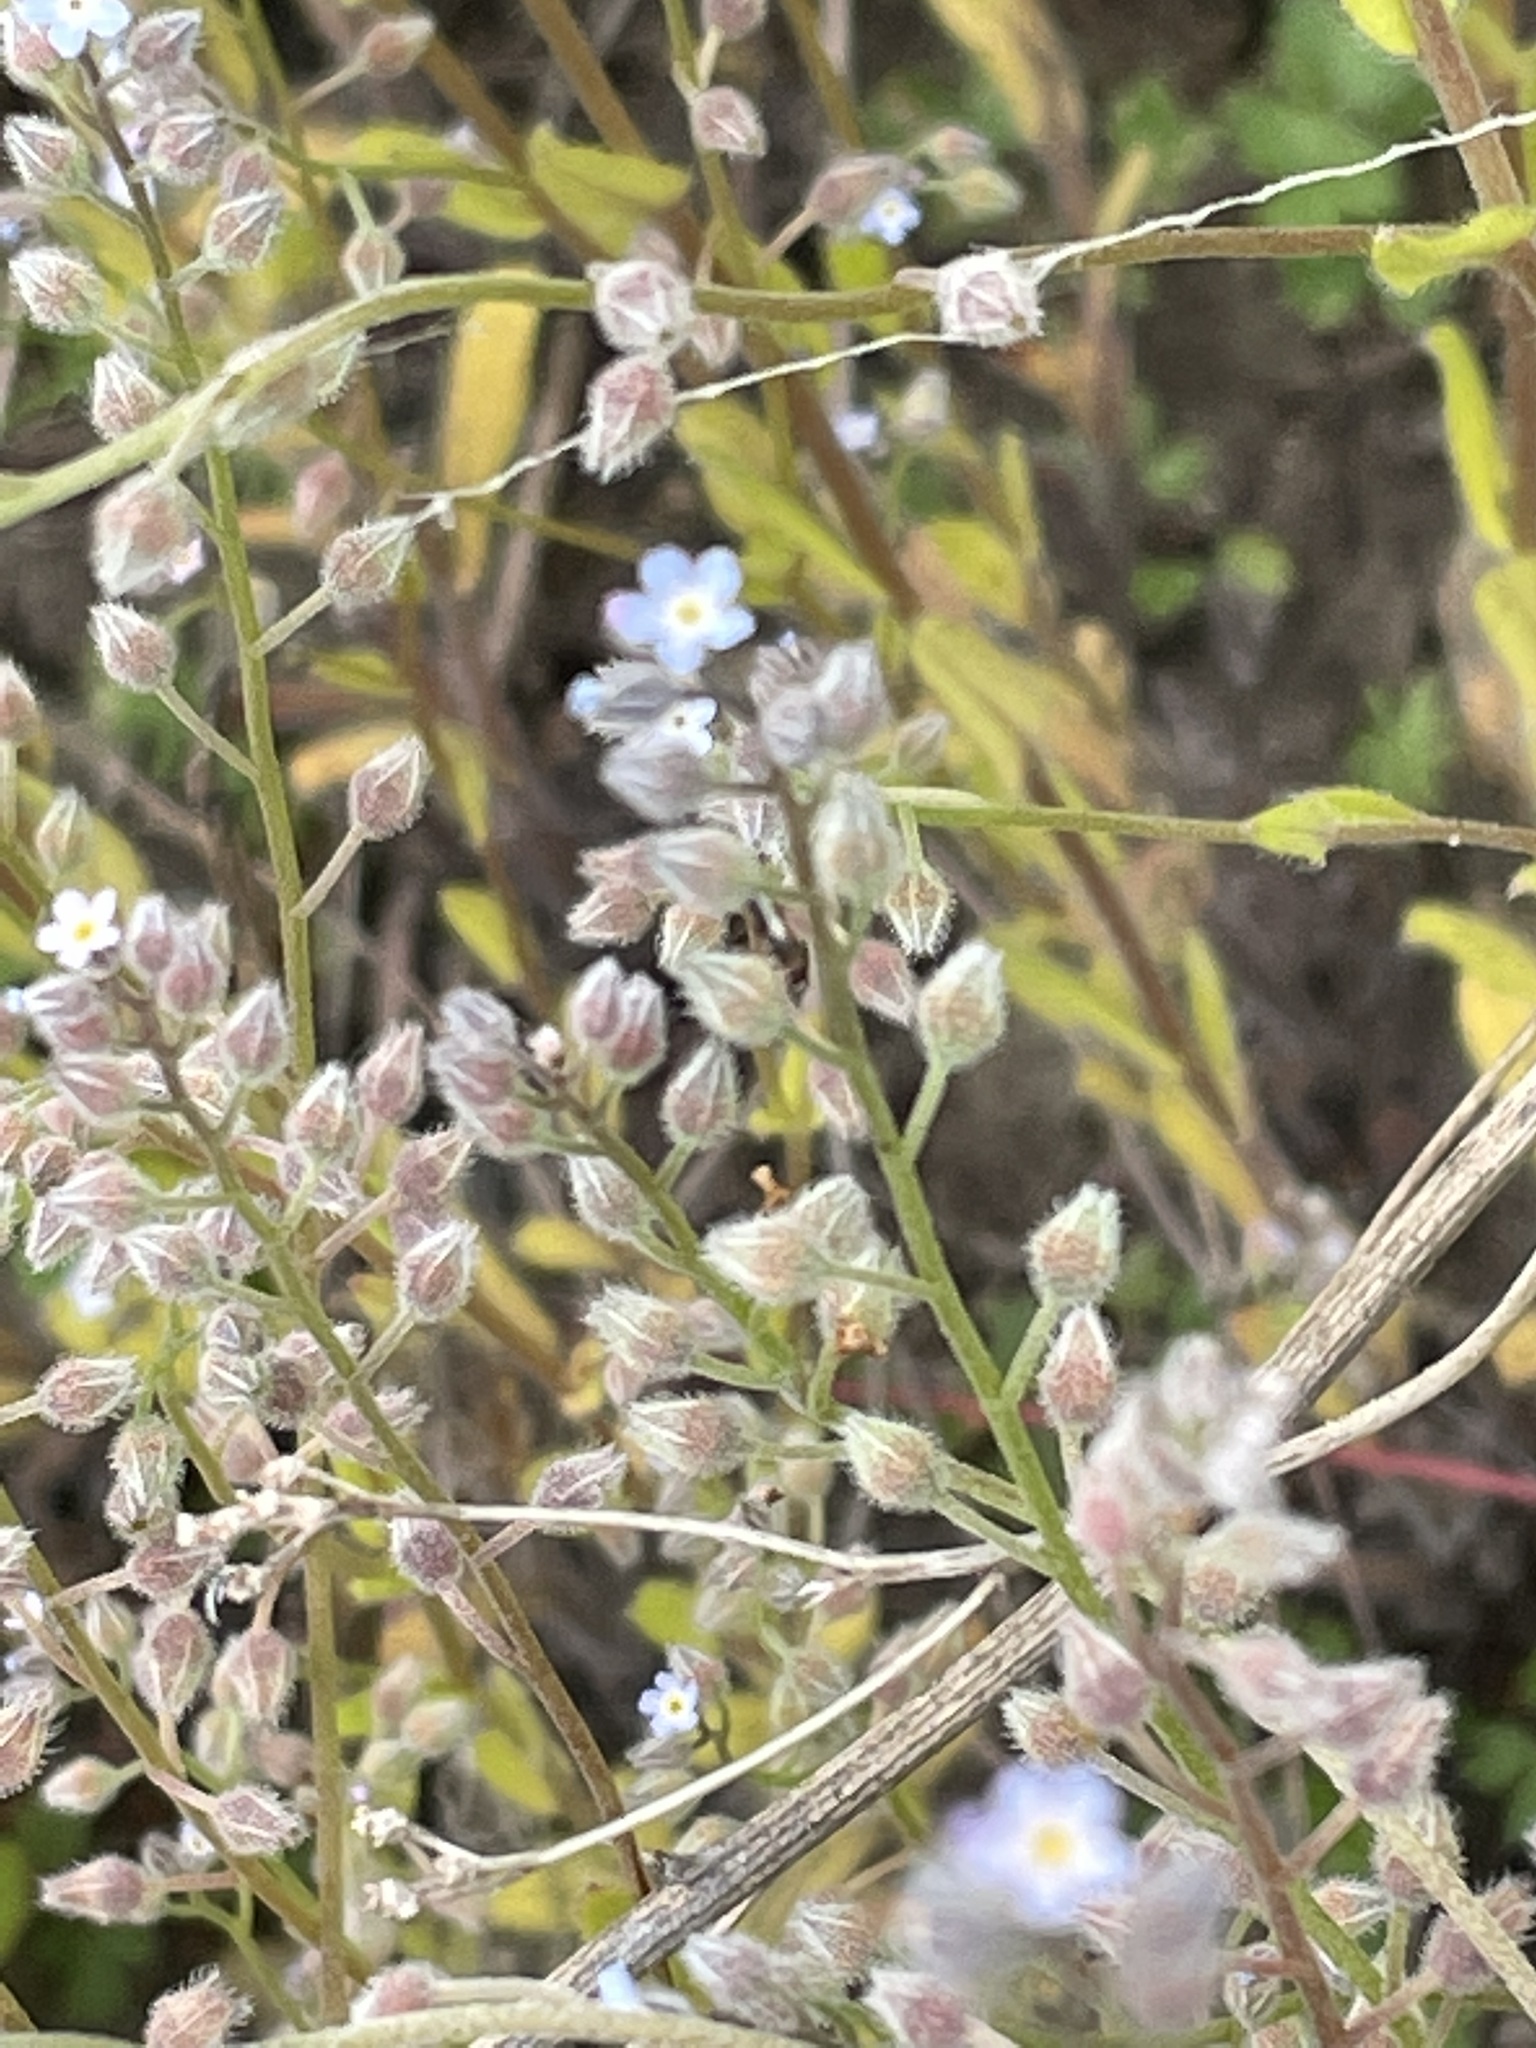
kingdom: Plantae
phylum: Tracheophyta
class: Magnoliopsida
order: Boraginales
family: Boraginaceae
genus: Myosotis
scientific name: Myosotis arvensis
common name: Field forget-me-not
